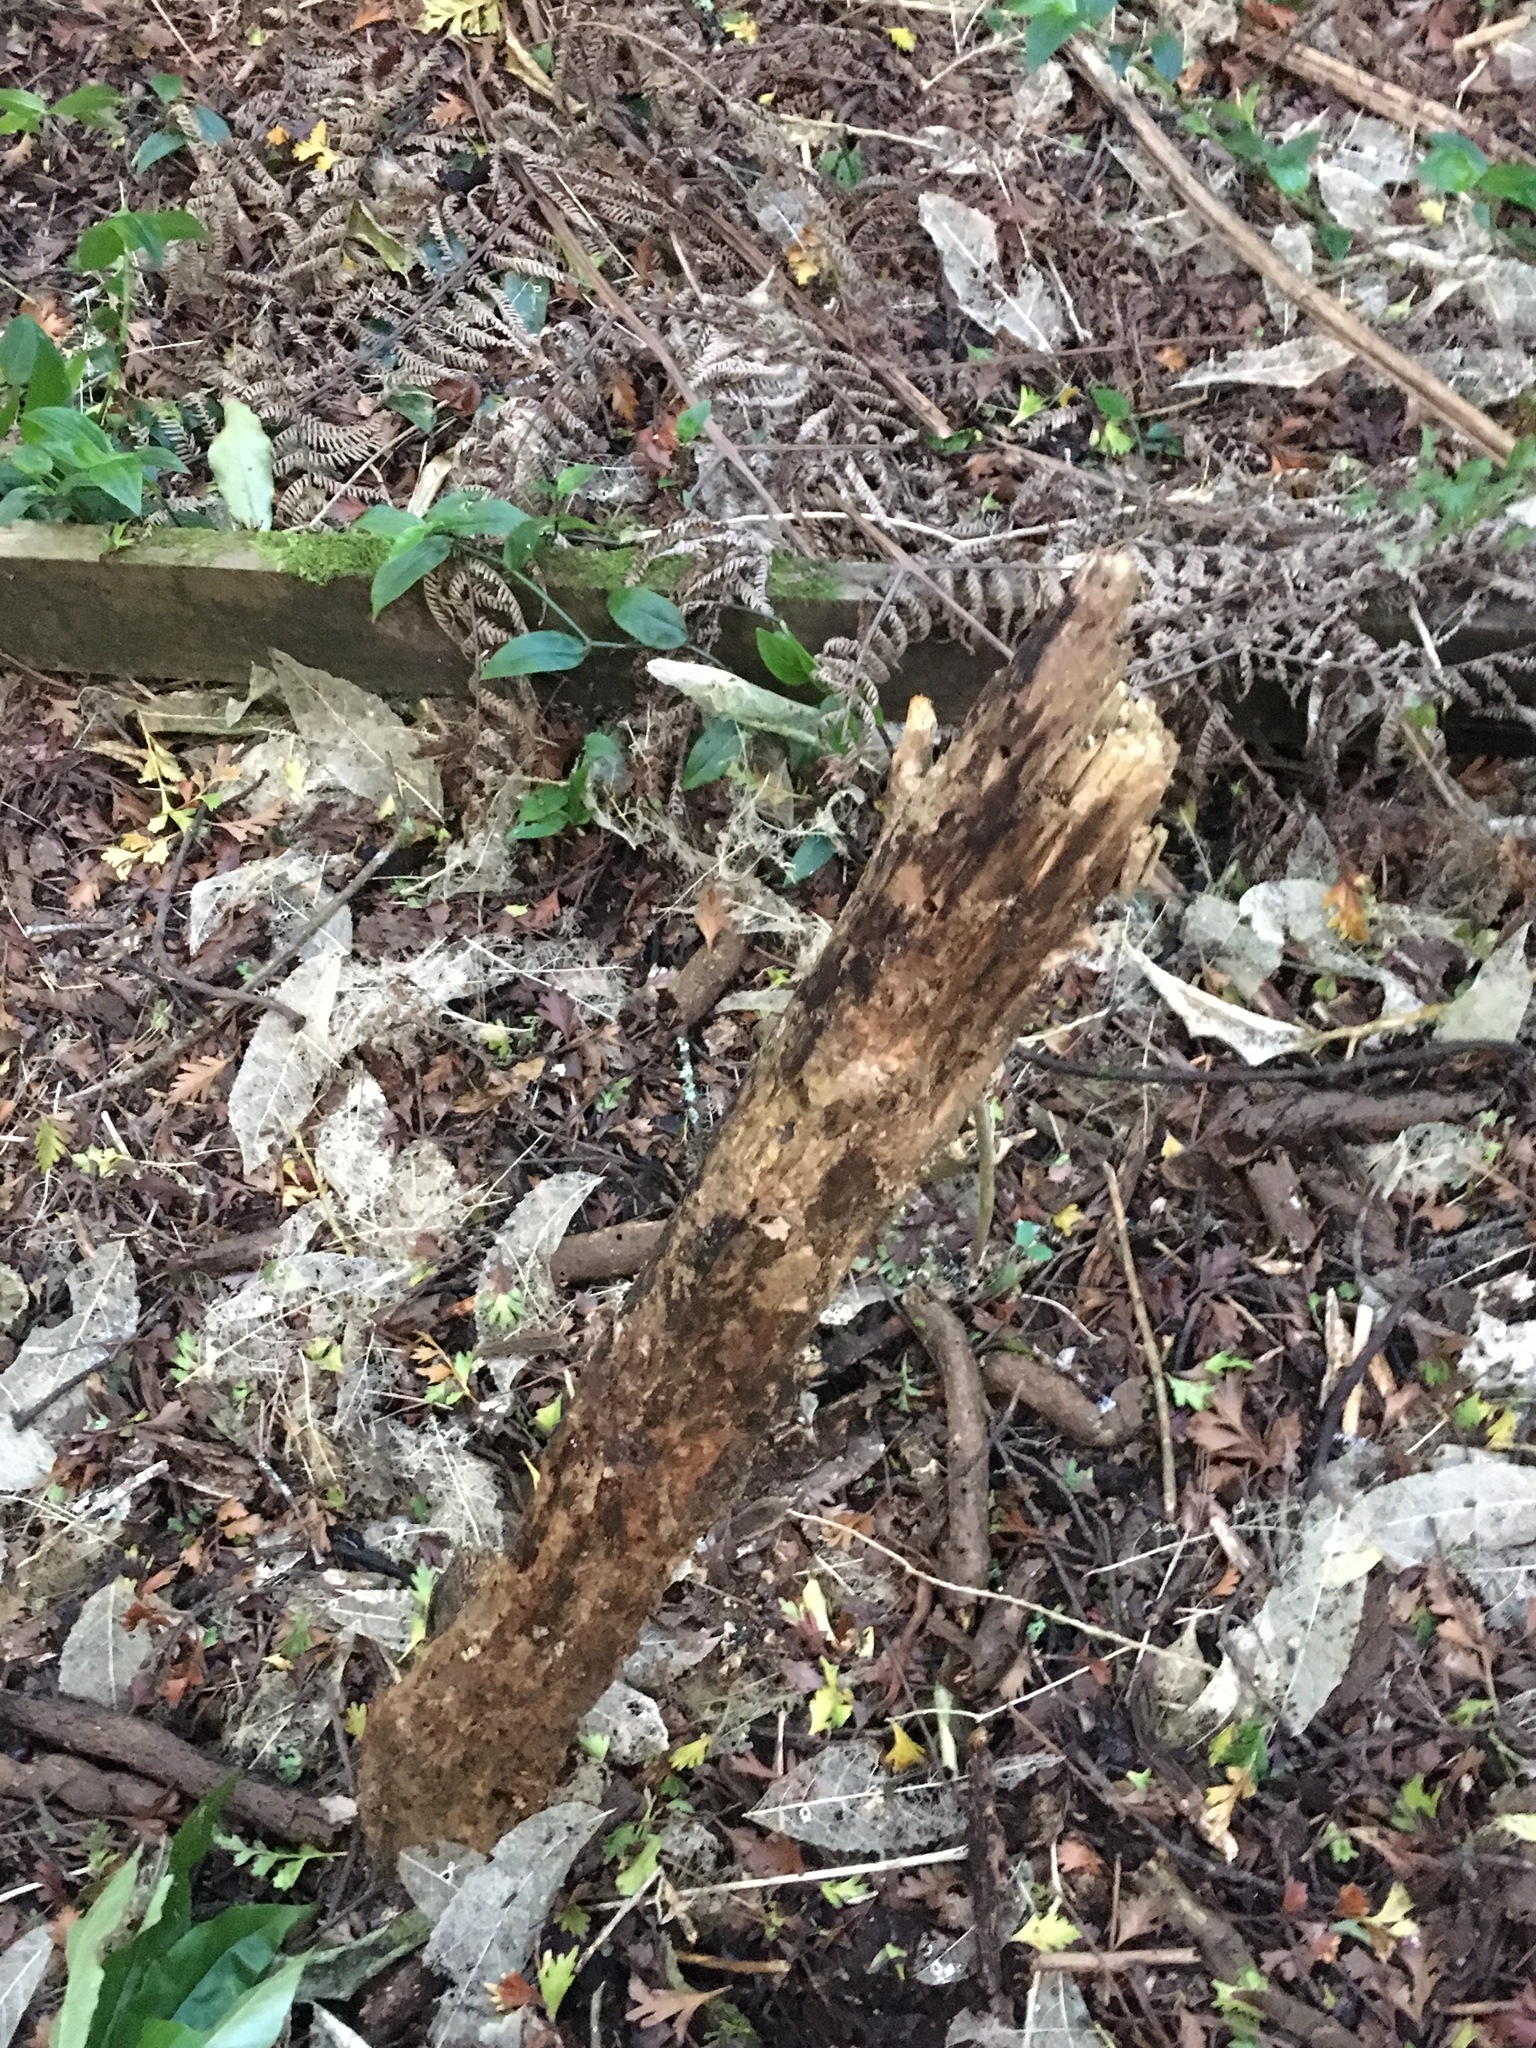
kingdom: Plantae
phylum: Tracheophyta
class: Liliopsida
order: Commelinales
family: Commelinaceae
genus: Tradescantia
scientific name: Tradescantia fluminensis
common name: Wandering-jew
